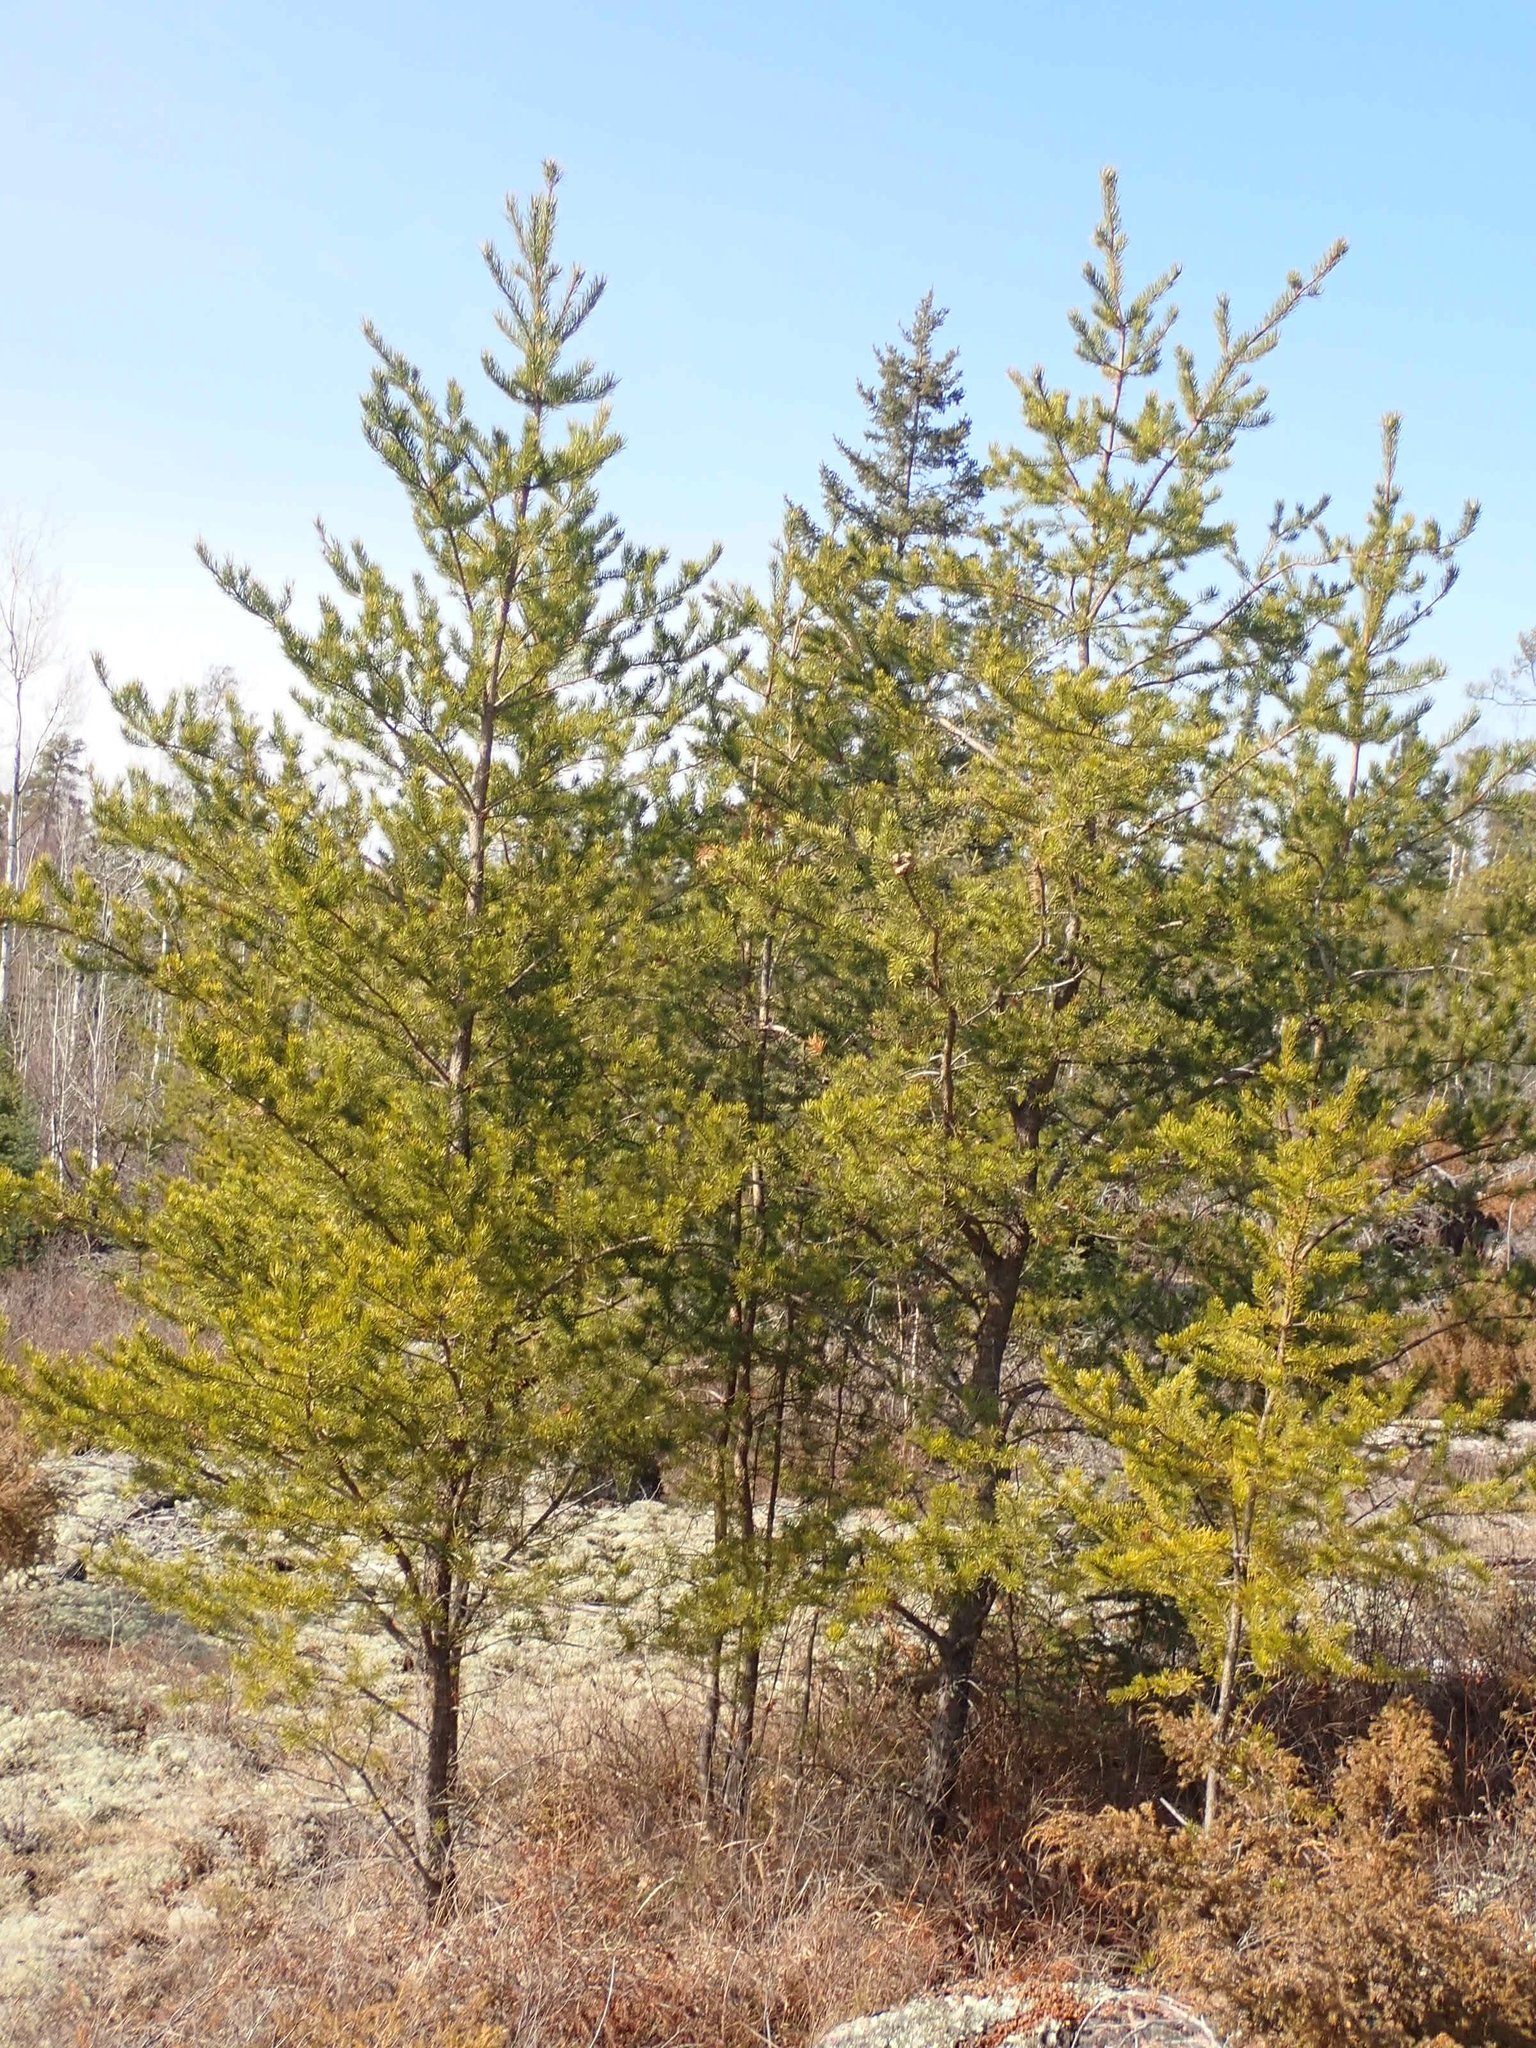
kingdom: Plantae
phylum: Tracheophyta
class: Pinopsida
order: Pinales
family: Pinaceae
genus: Pinus
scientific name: Pinus banksiana
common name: Jack pine
